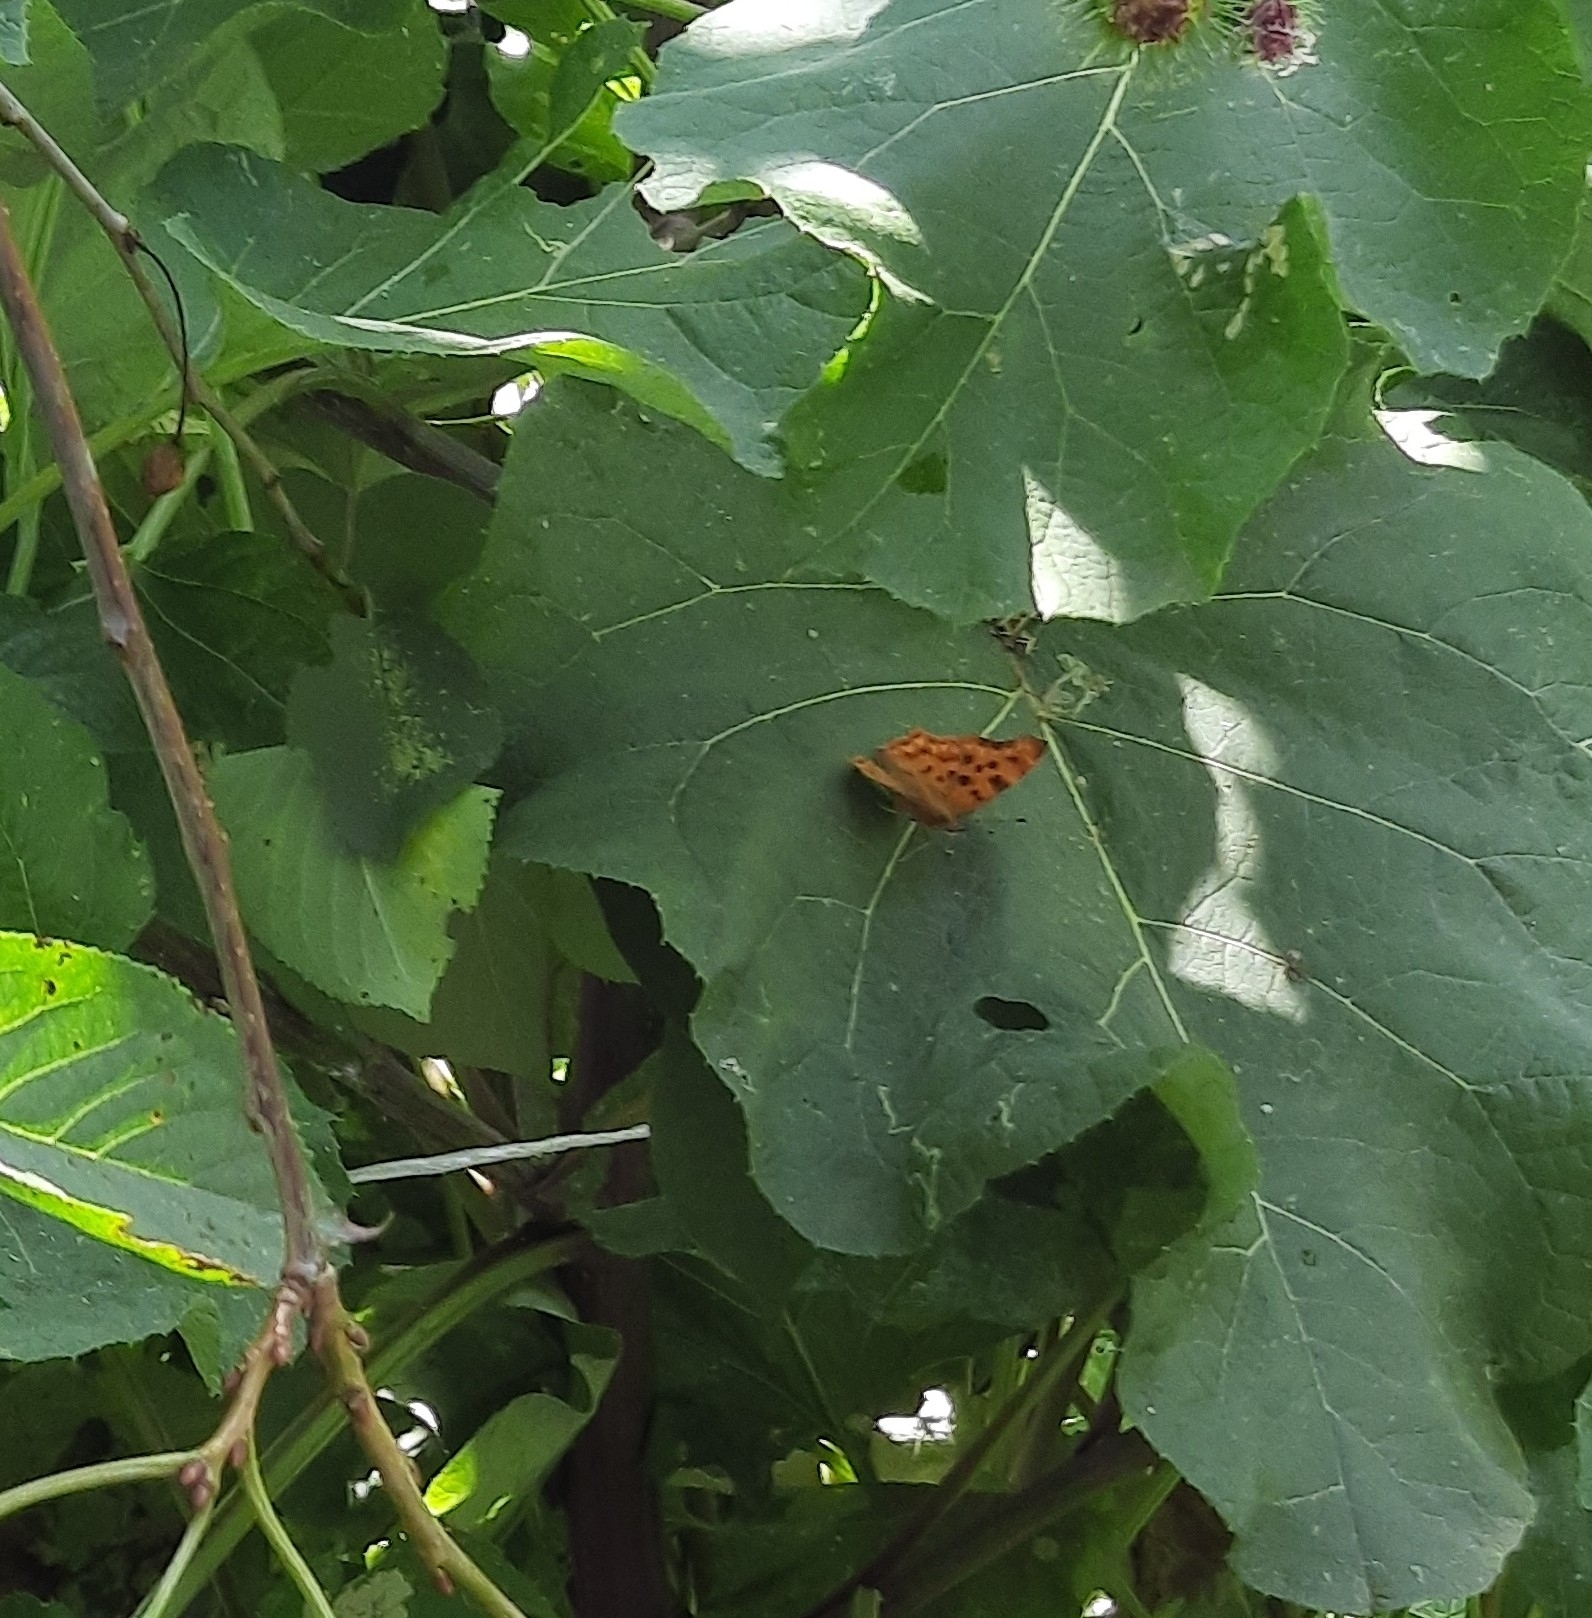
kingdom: Animalia
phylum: Arthropoda
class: Insecta
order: Lepidoptera
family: Nymphalidae
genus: Polygonia
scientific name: Polygonia c-album
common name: Comma
